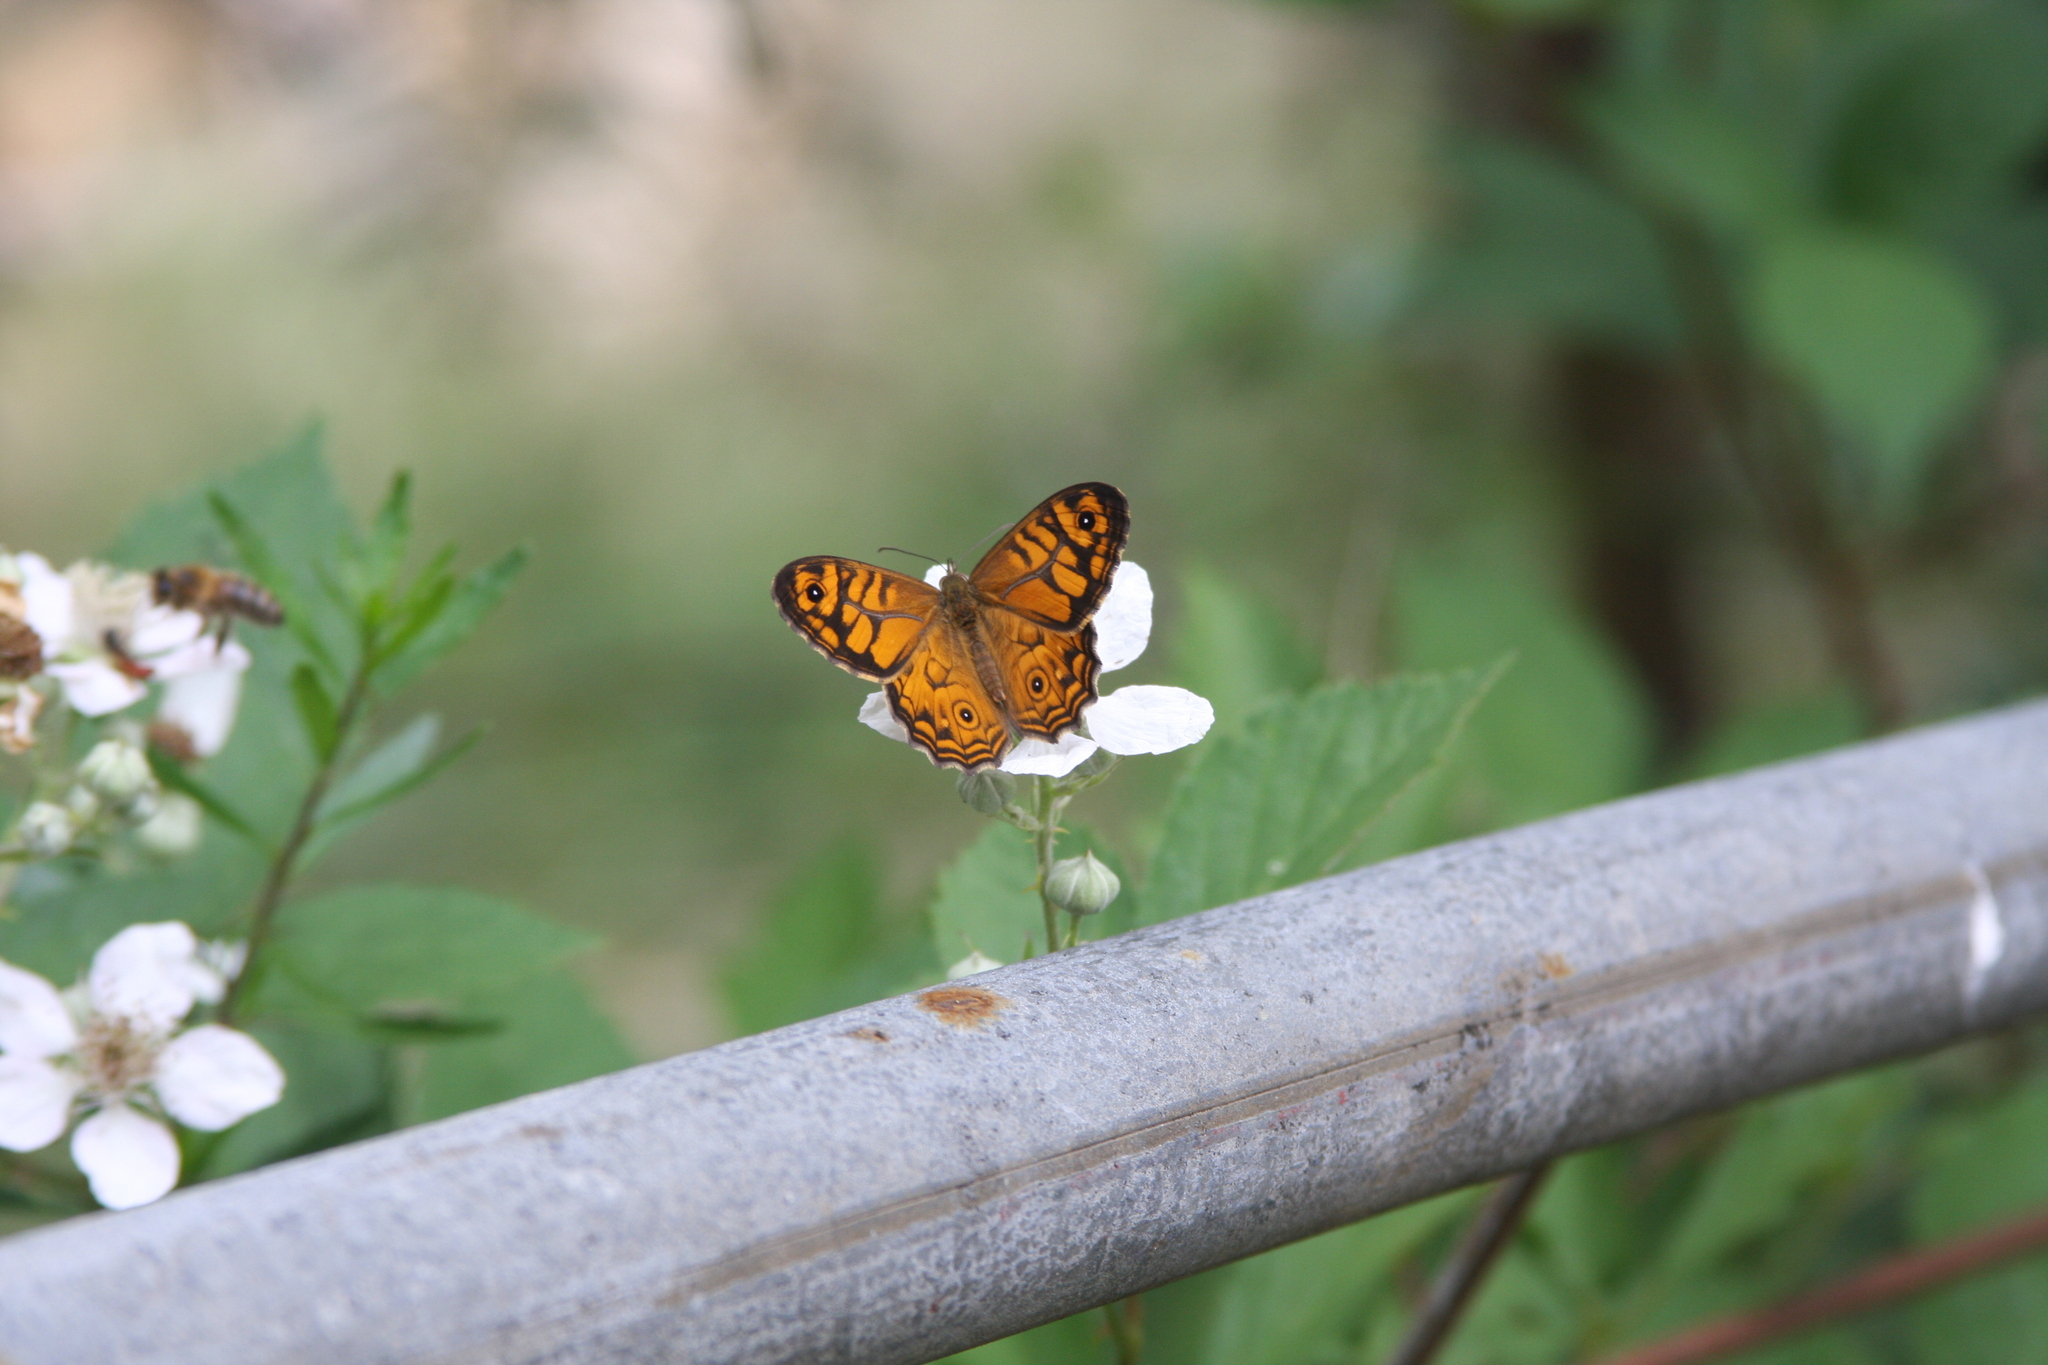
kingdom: Animalia
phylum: Arthropoda
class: Insecta
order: Lepidoptera
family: Nymphalidae
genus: Geitoneura
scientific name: Geitoneura acantha
